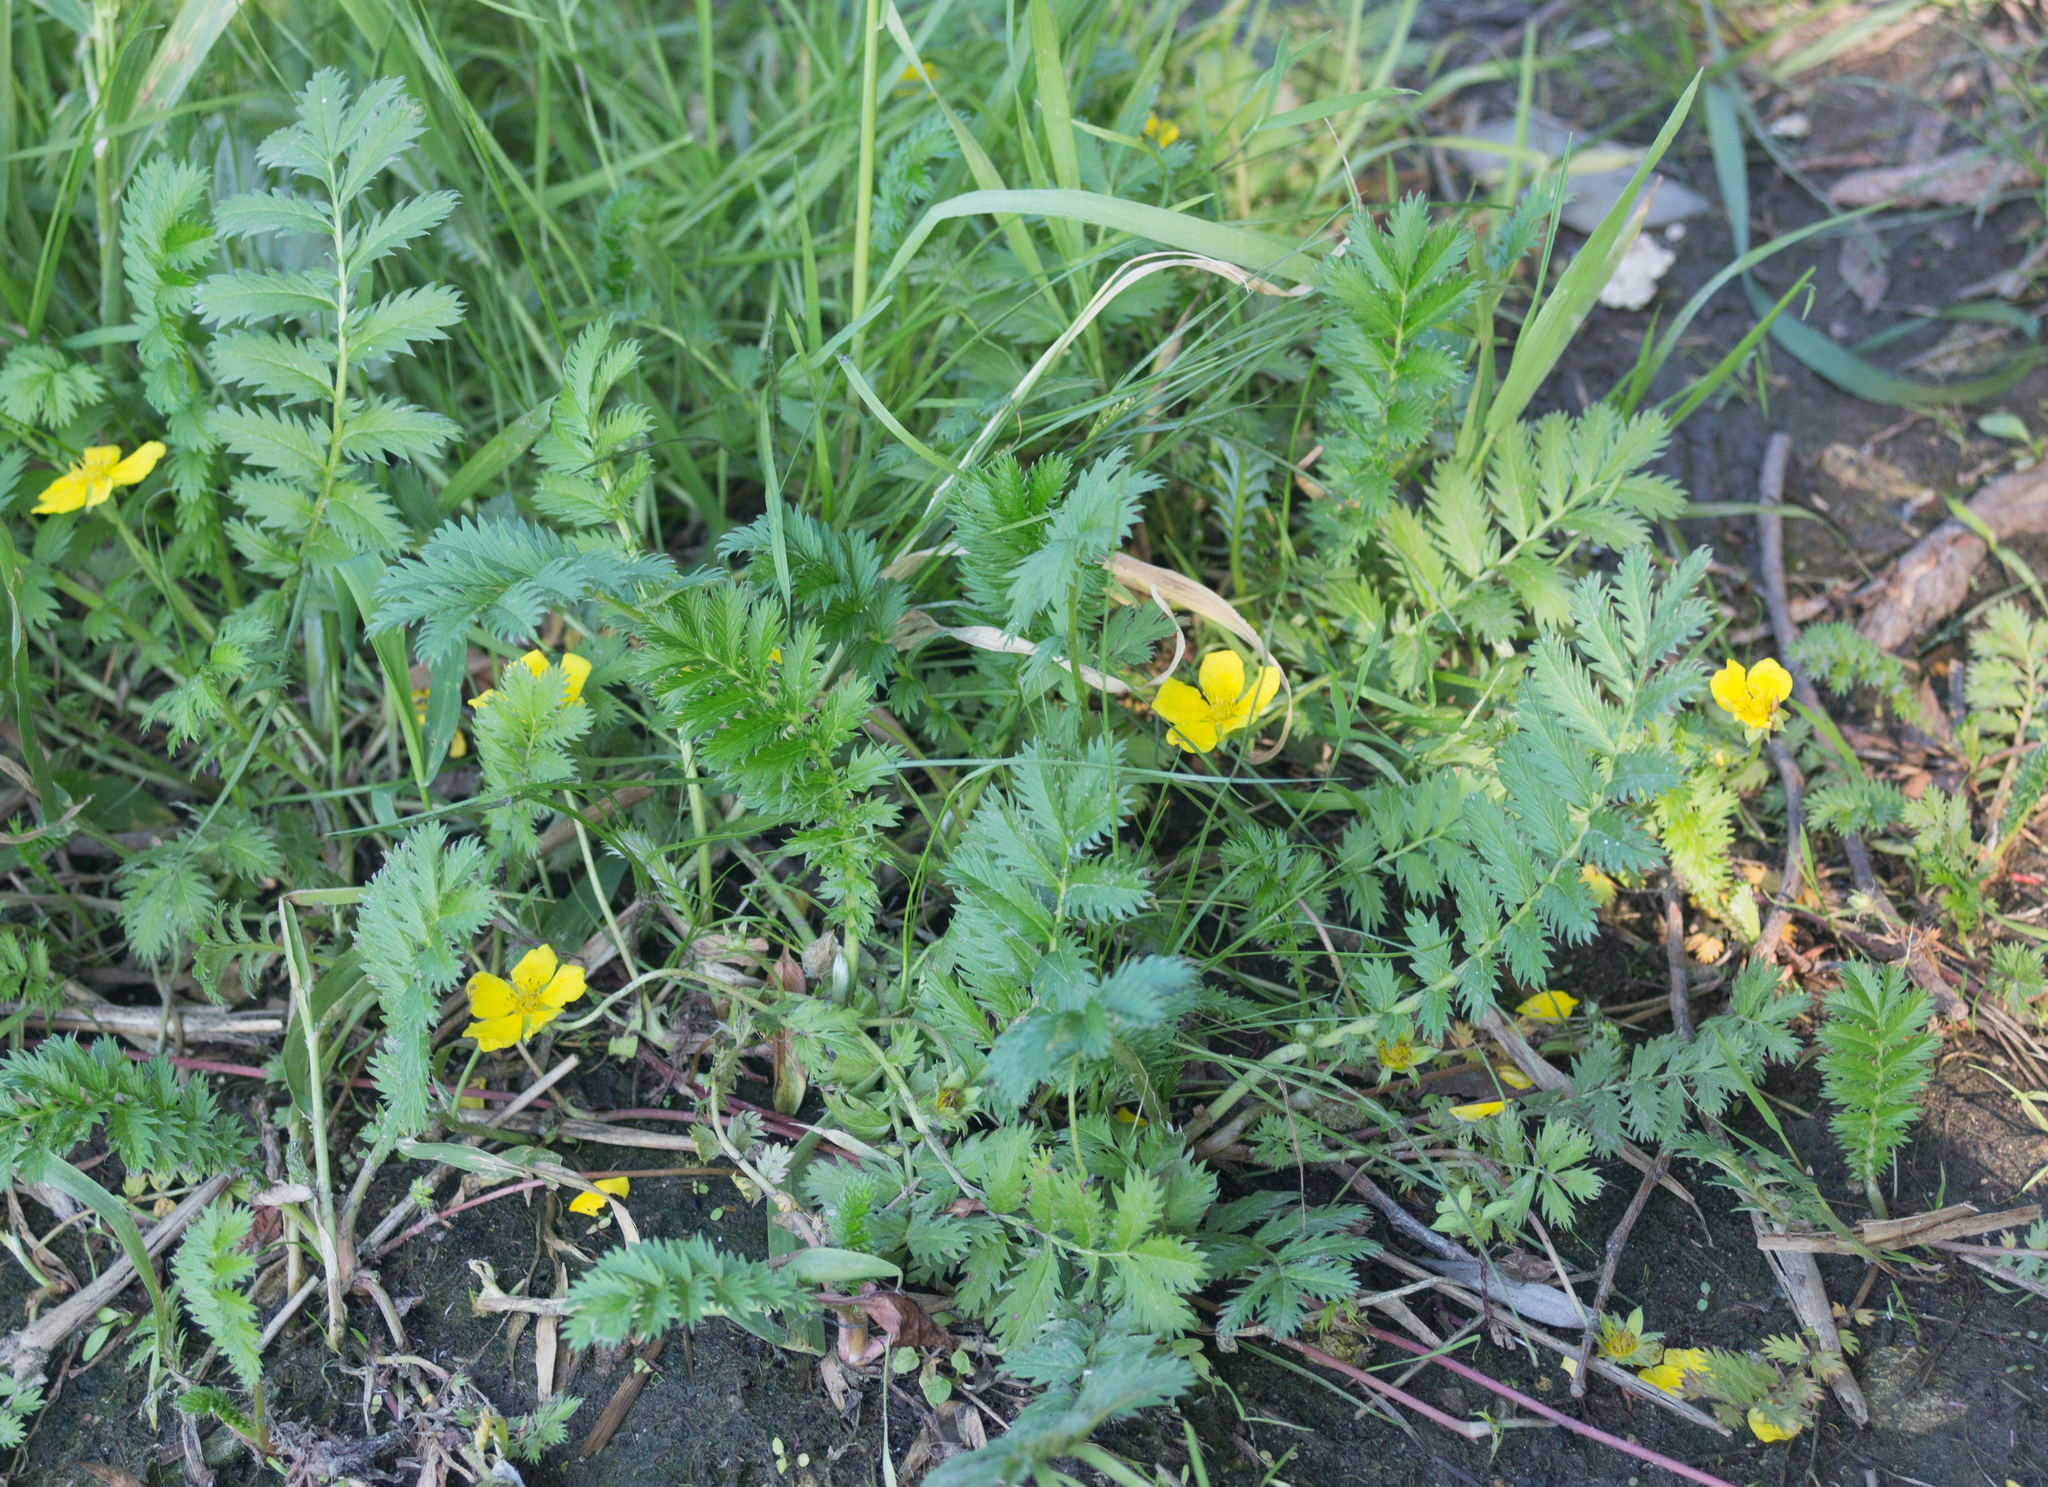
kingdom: Plantae
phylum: Tracheophyta
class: Magnoliopsida
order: Rosales
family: Rosaceae
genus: Argentina
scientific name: Argentina anserina
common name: Common silverweed
